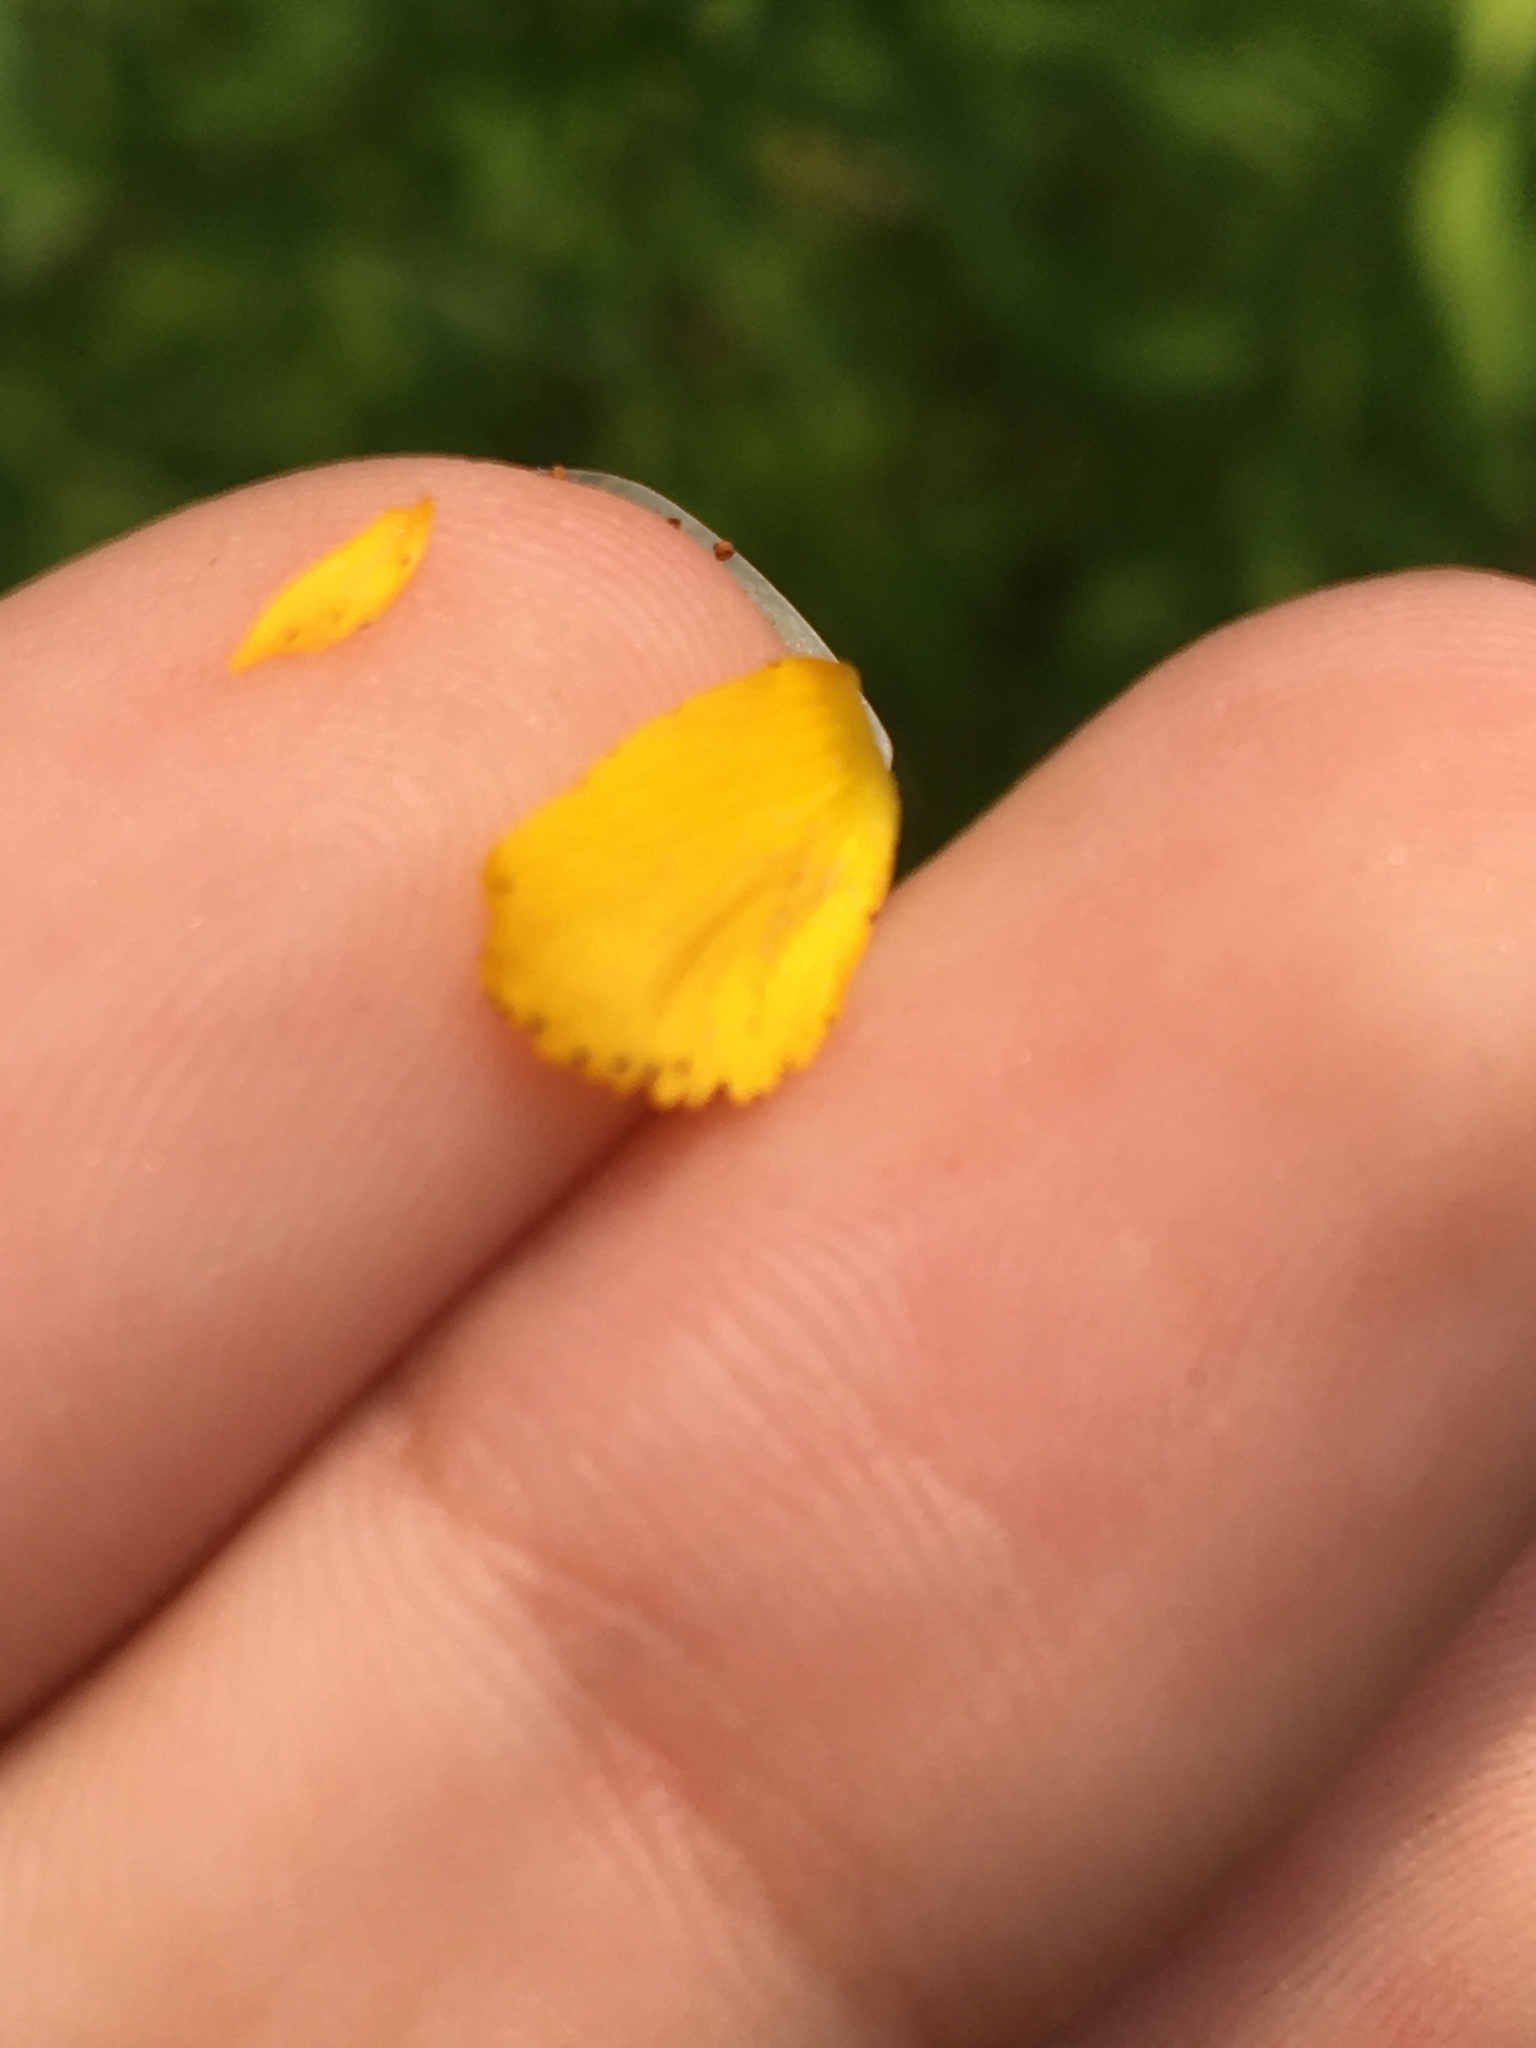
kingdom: Plantae
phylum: Tracheophyta
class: Magnoliopsida
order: Malpighiales
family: Hypericaceae
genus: Hypericum
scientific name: Hypericum perforatum
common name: Common st. johnswort
